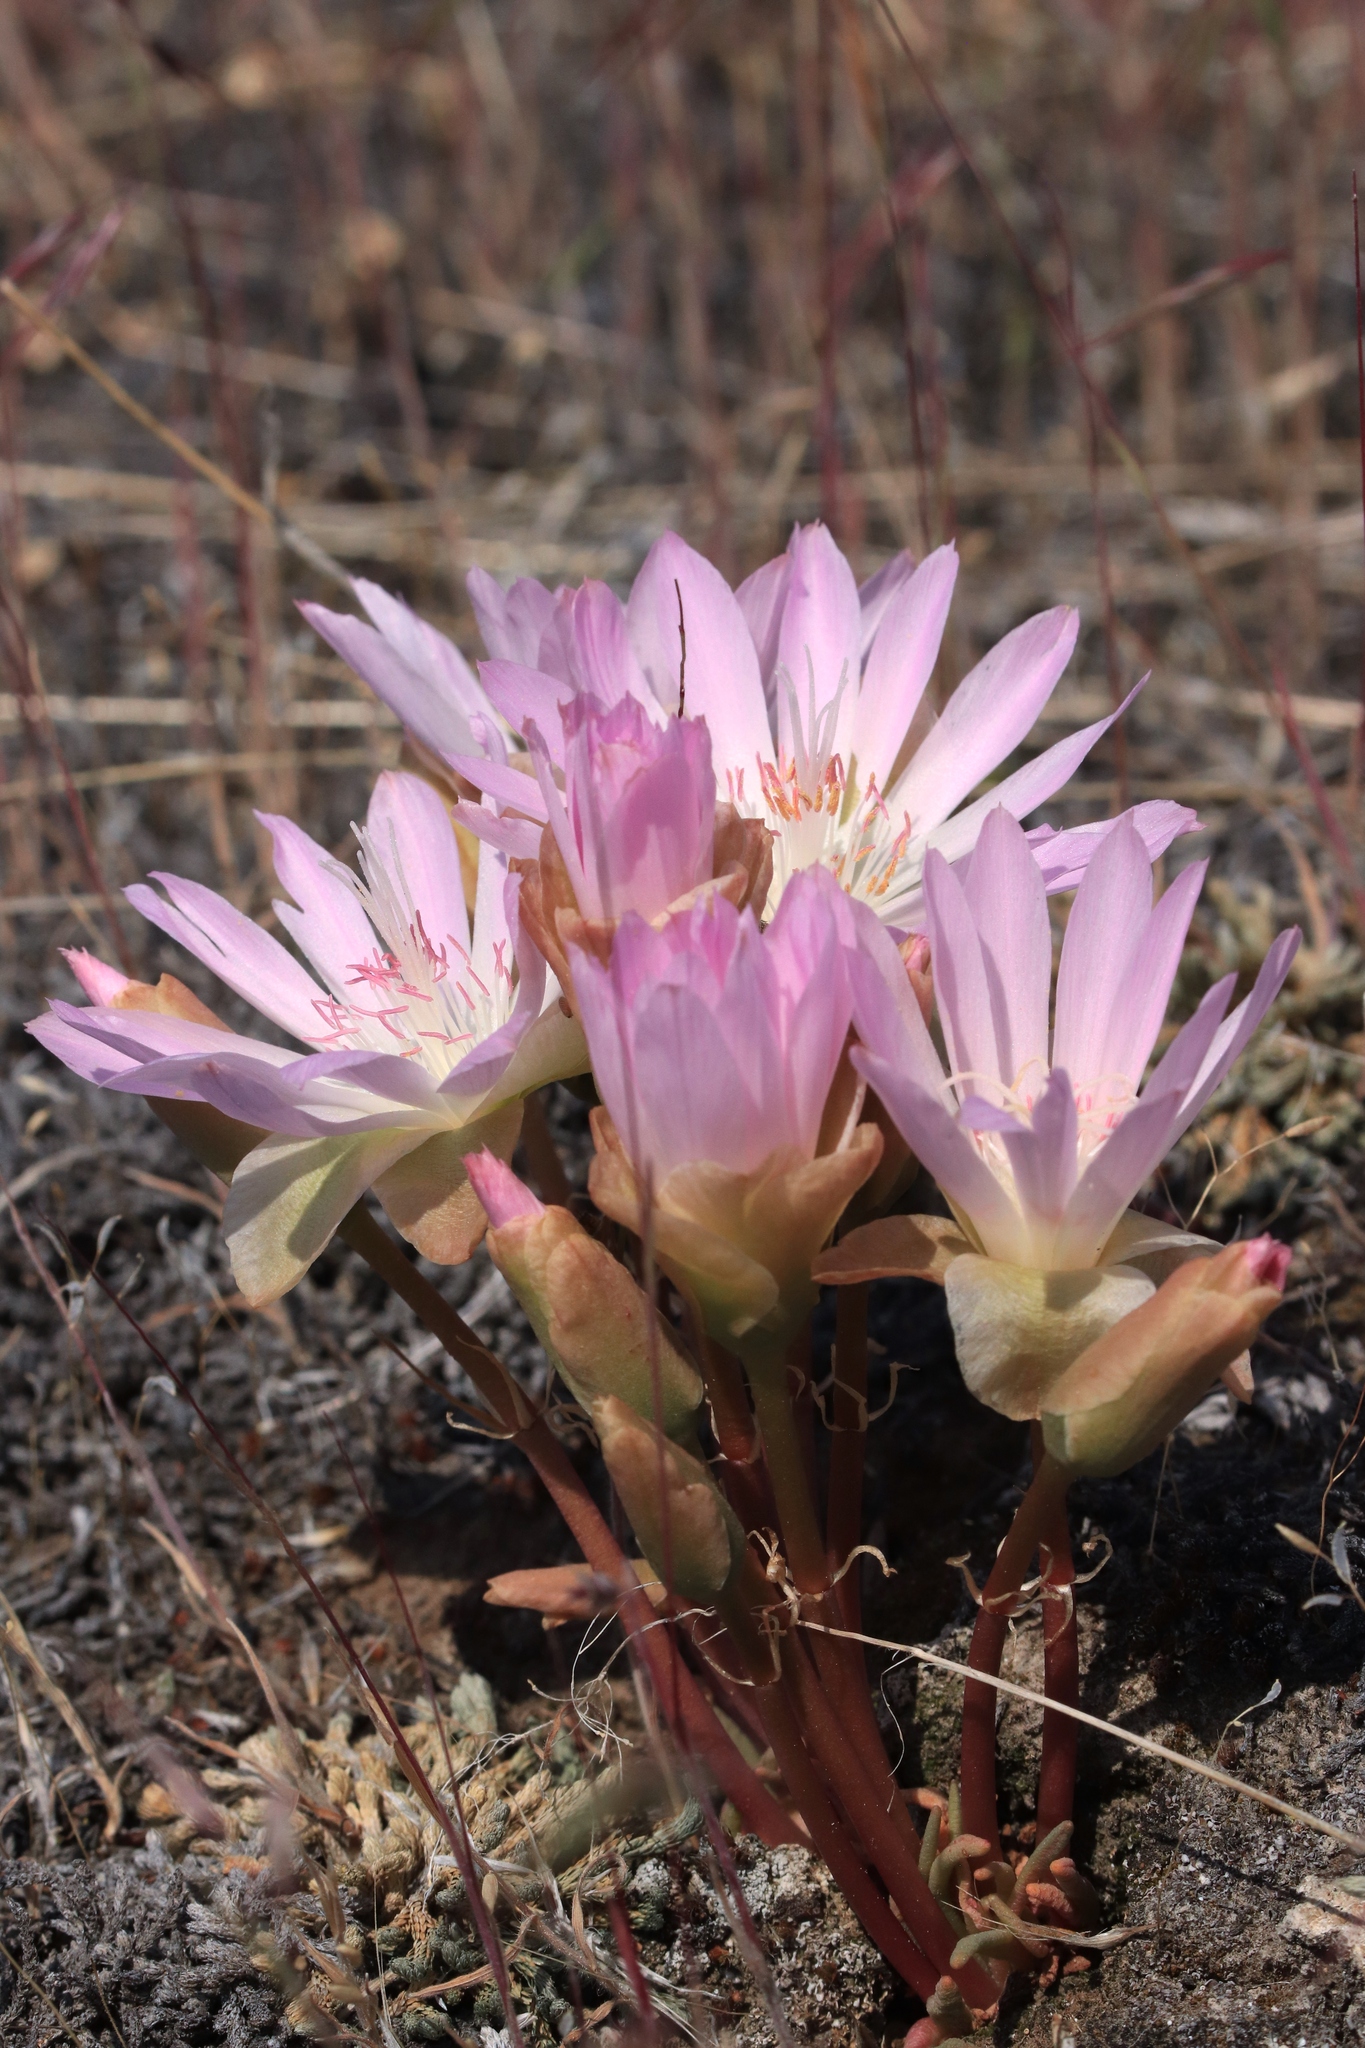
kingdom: Plantae
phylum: Tracheophyta
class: Magnoliopsida
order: Caryophyllales
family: Montiaceae
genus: Lewisia
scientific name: Lewisia rediviva
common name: Bitter-root
